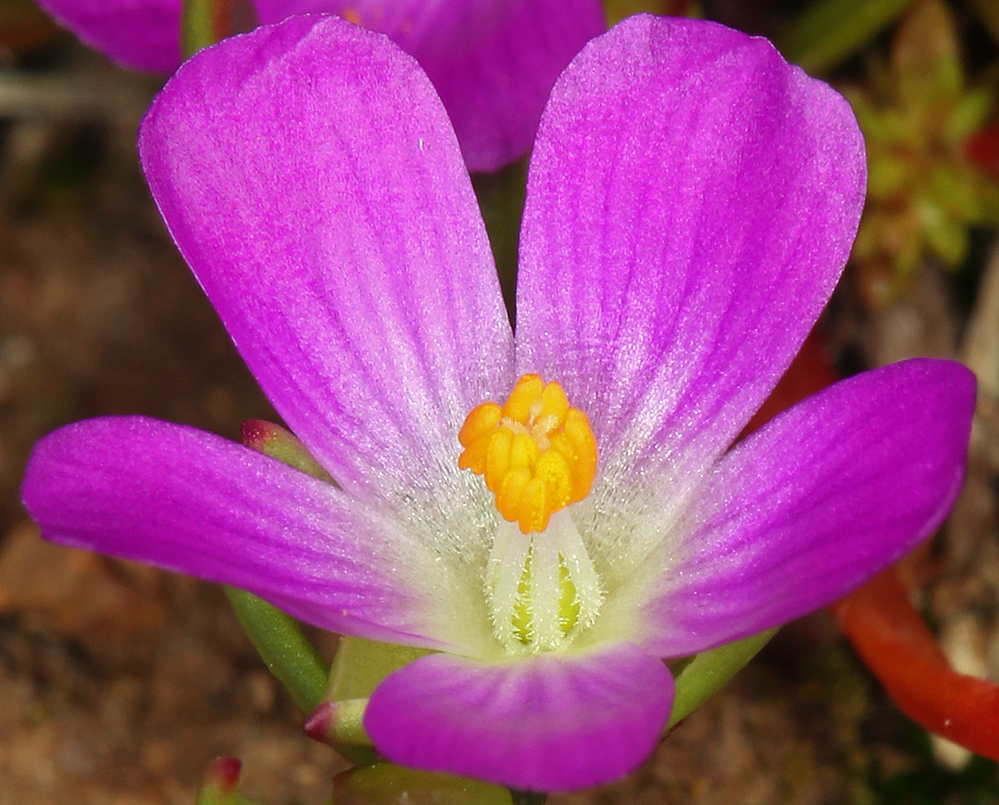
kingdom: Plantae
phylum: Tracheophyta
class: Magnoliopsida
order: Caryophyllales
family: Montiaceae
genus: Calandrinia
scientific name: Calandrinia menziesii
